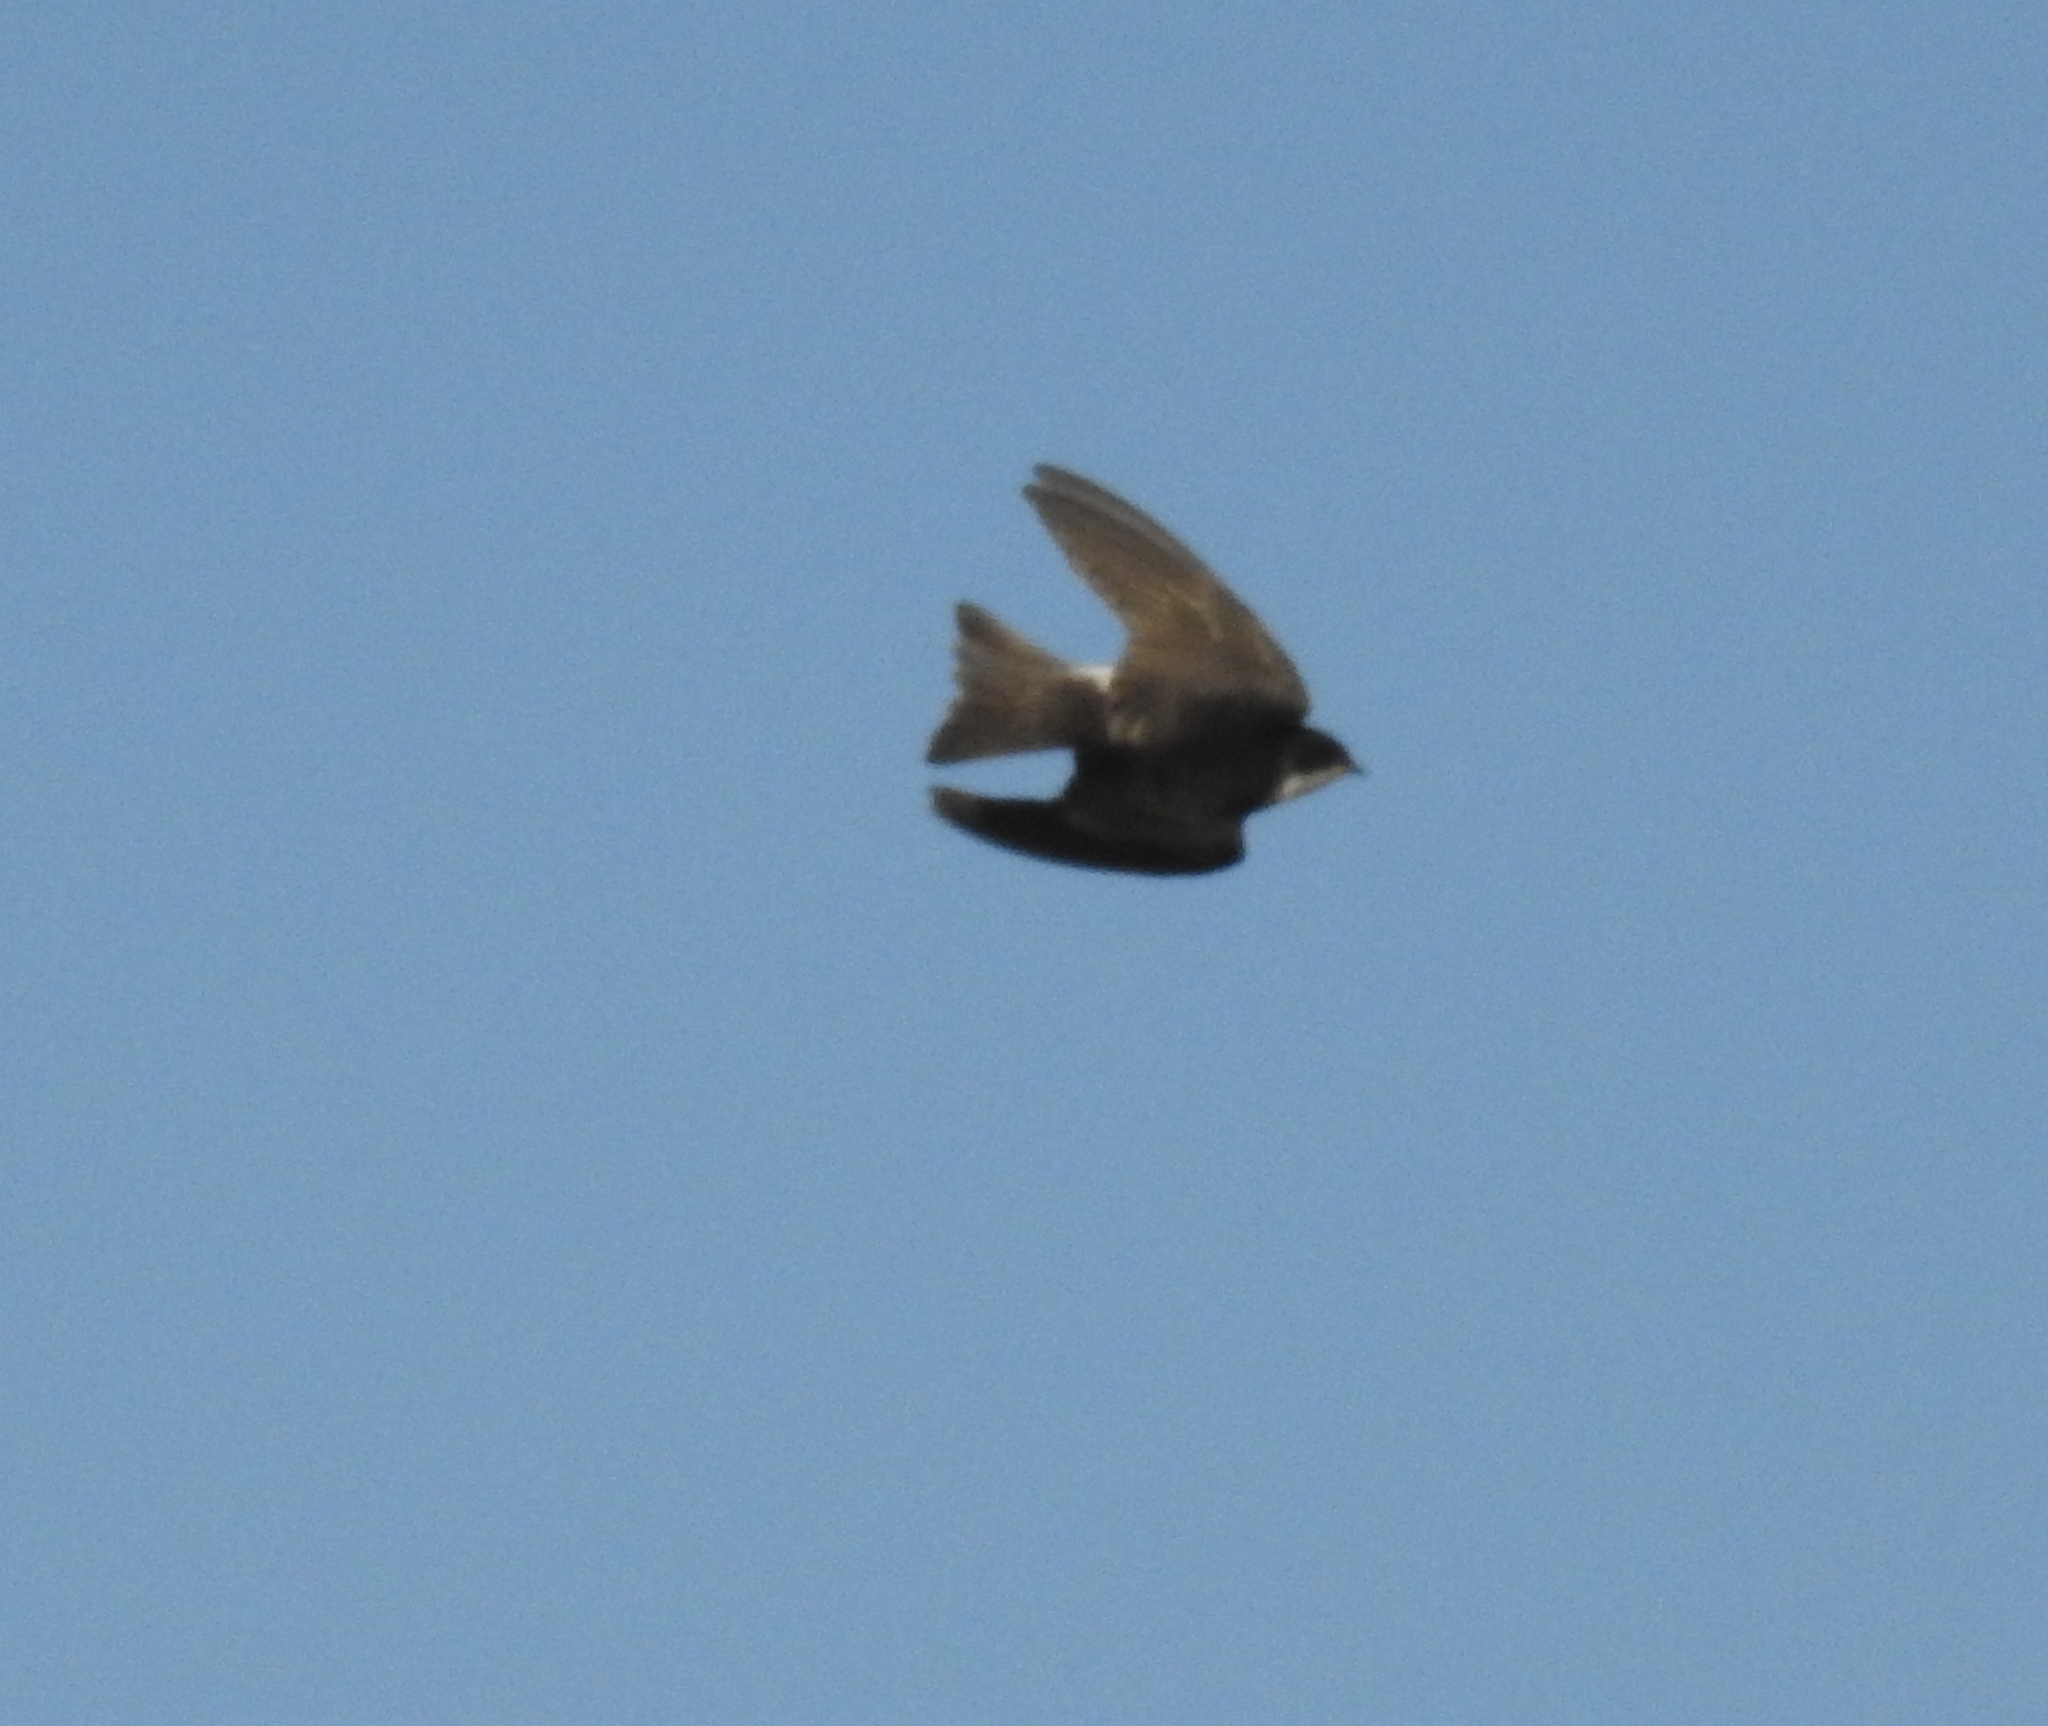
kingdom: Animalia
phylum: Chordata
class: Aves
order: Passeriformes
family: Hirundinidae
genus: Tachycineta
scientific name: Tachycineta bicolor
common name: Tree swallow
